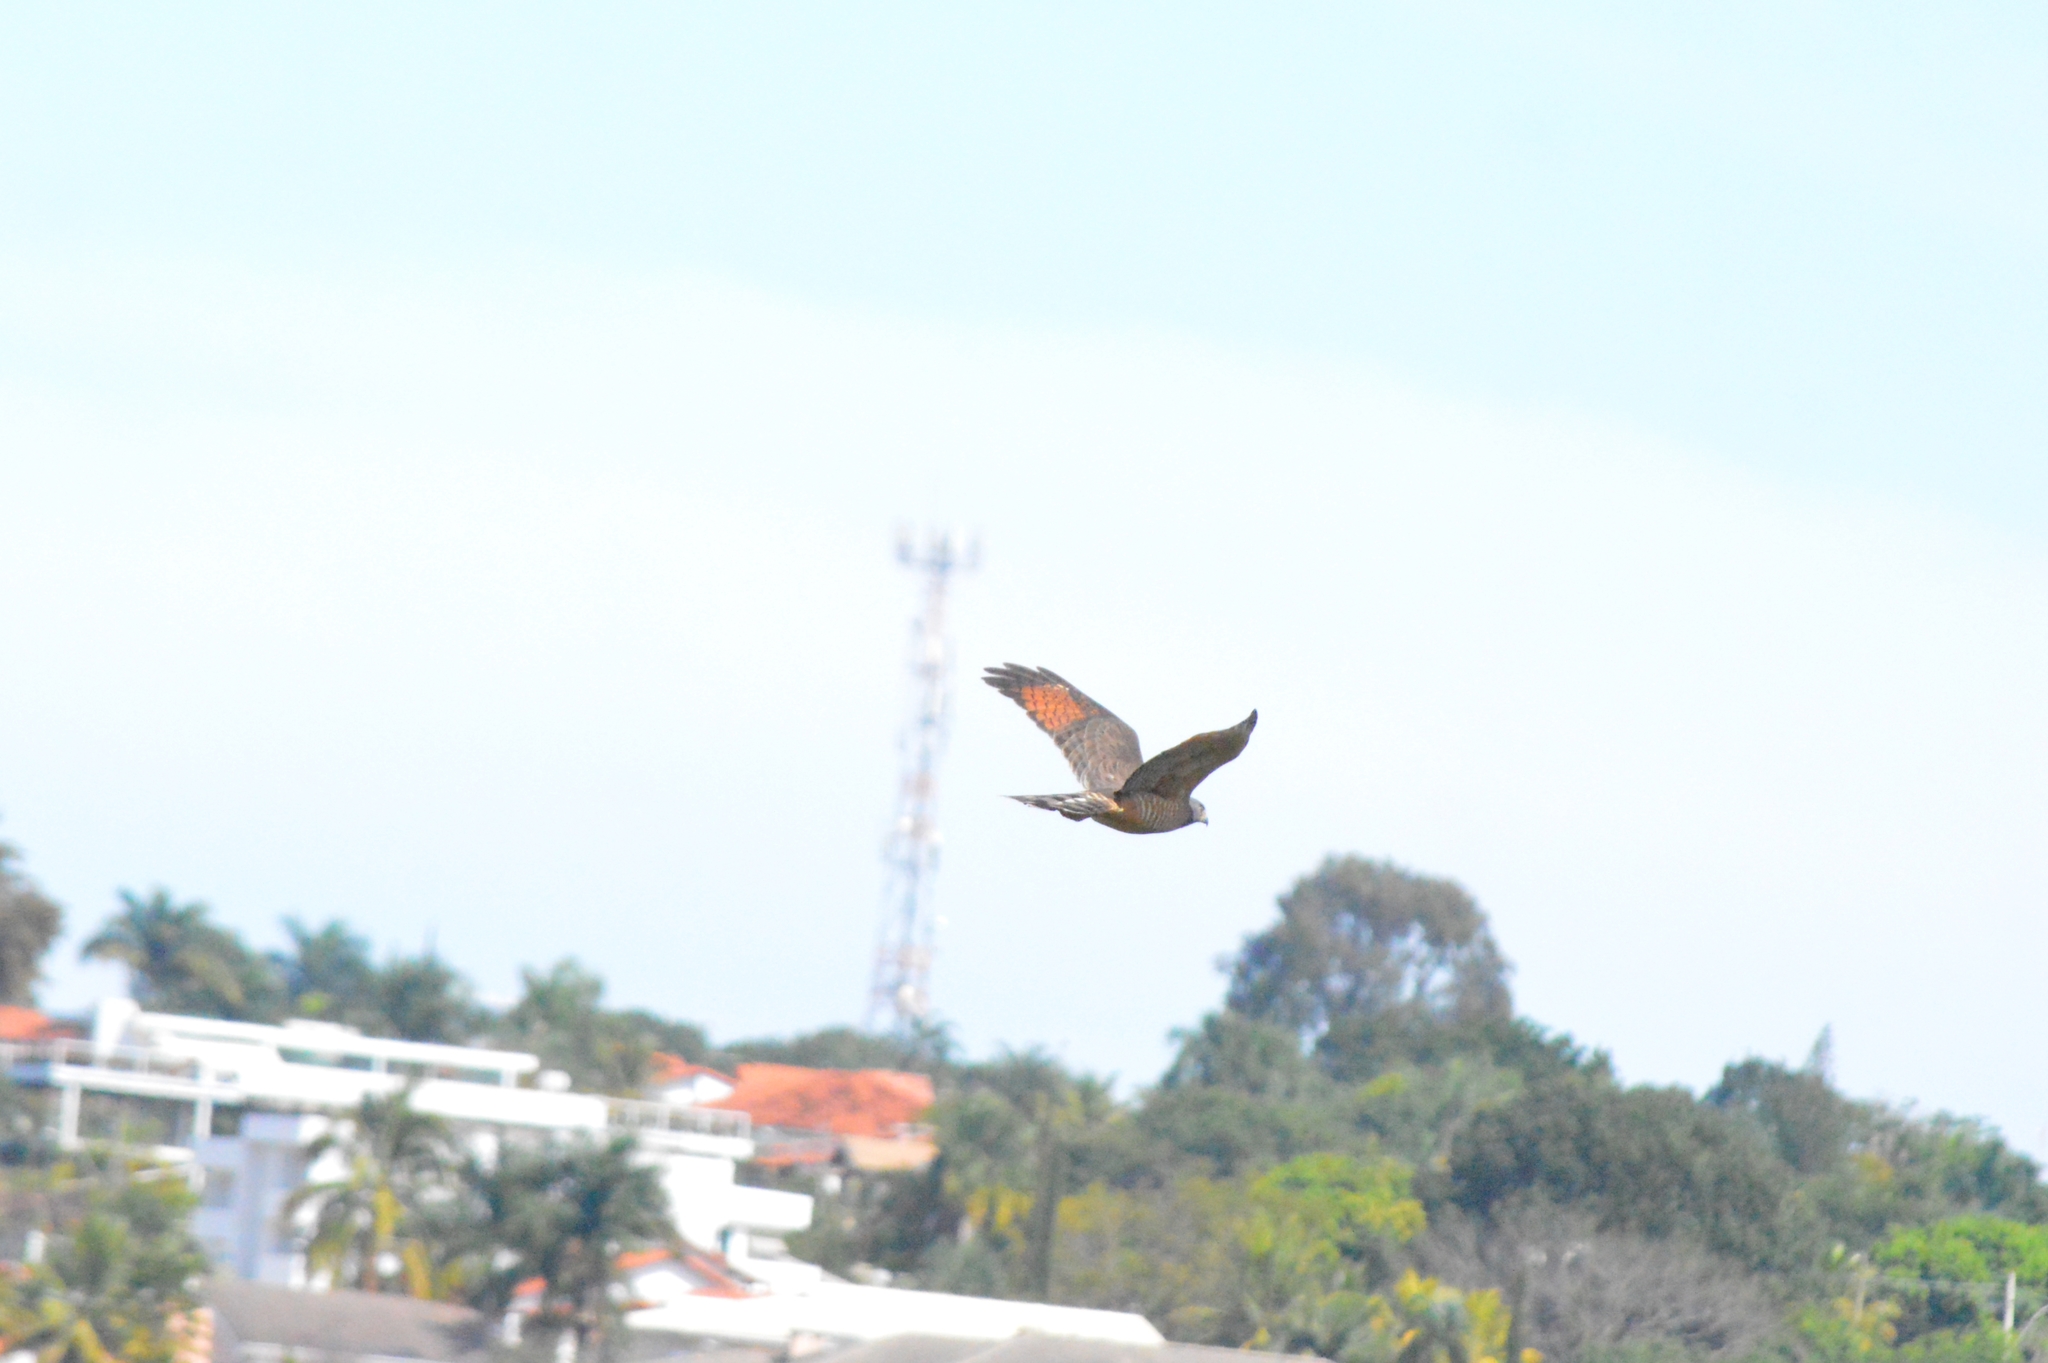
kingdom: Animalia
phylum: Chordata
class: Aves
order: Accipitriformes
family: Accipitridae
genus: Rupornis
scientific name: Rupornis magnirostris
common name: Roadside hawk
